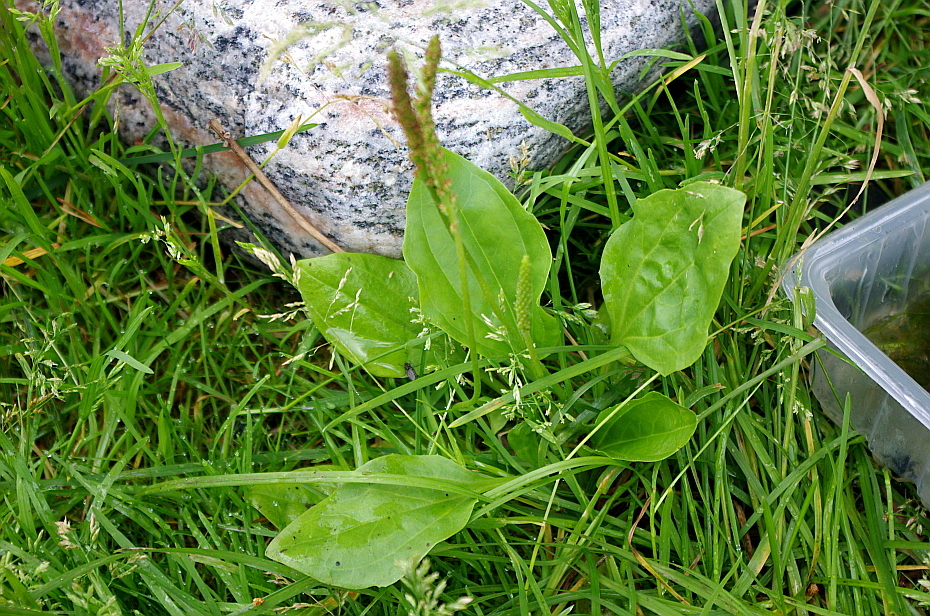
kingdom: Plantae
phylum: Tracheophyta
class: Magnoliopsida
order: Lamiales
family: Plantaginaceae
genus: Plantago
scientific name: Plantago major
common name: Common plantain
